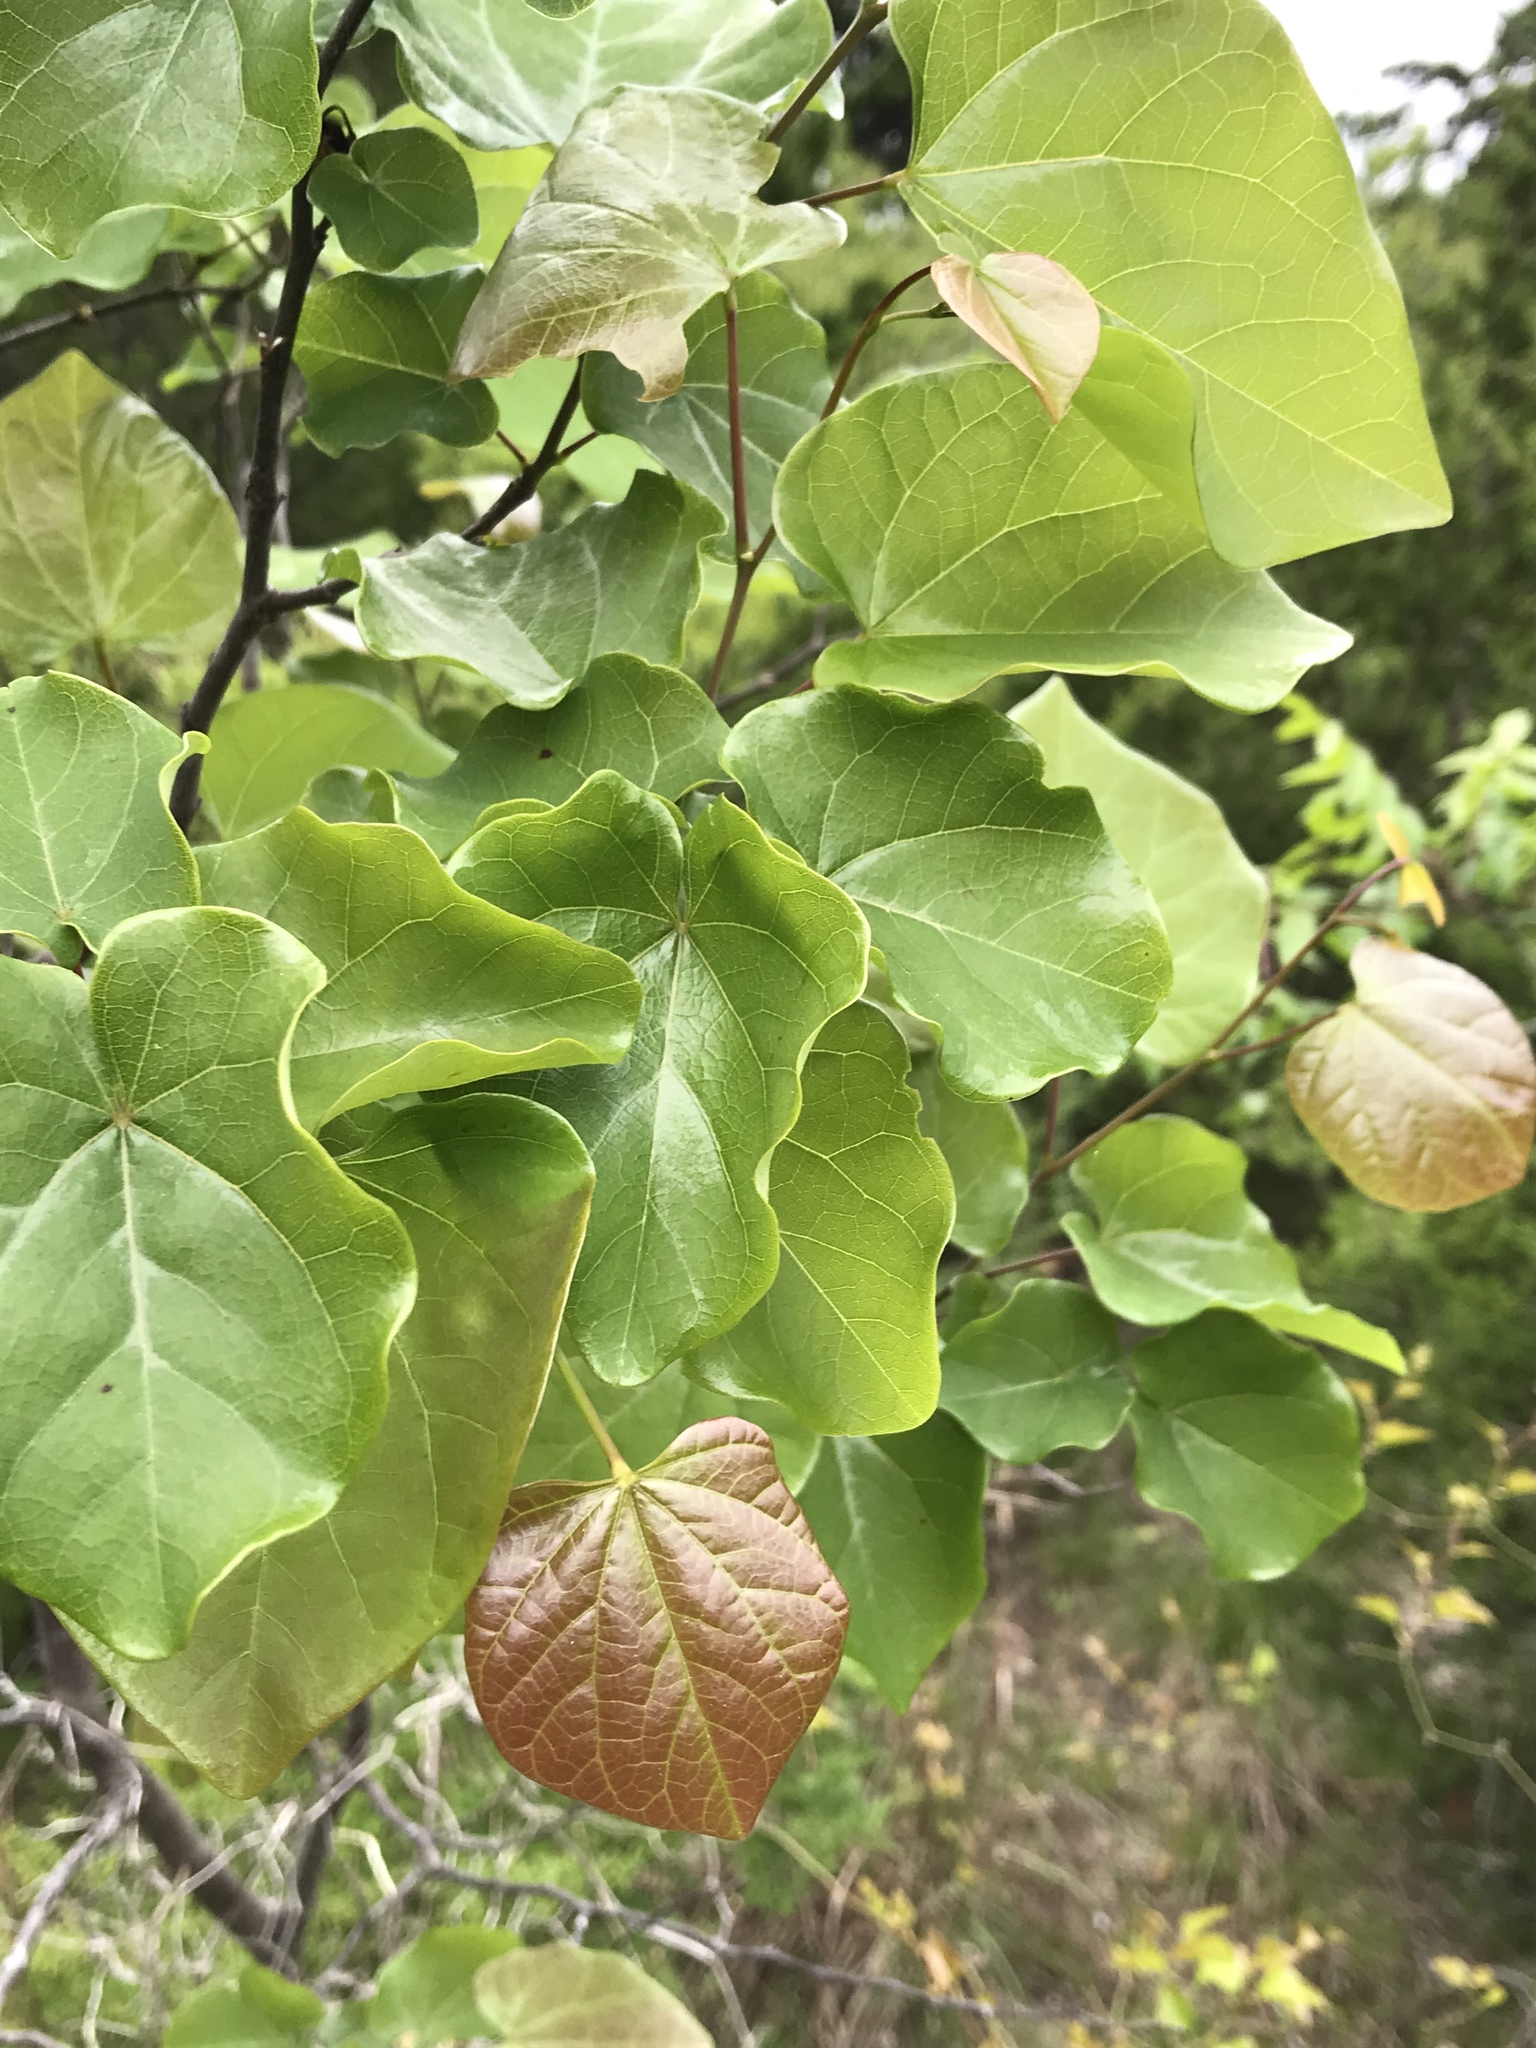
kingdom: Plantae
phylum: Tracheophyta
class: Magnoliopsida
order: Fabales
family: Fabaceae
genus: Cercis
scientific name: Cercis canadensis
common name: Eastern redbud
